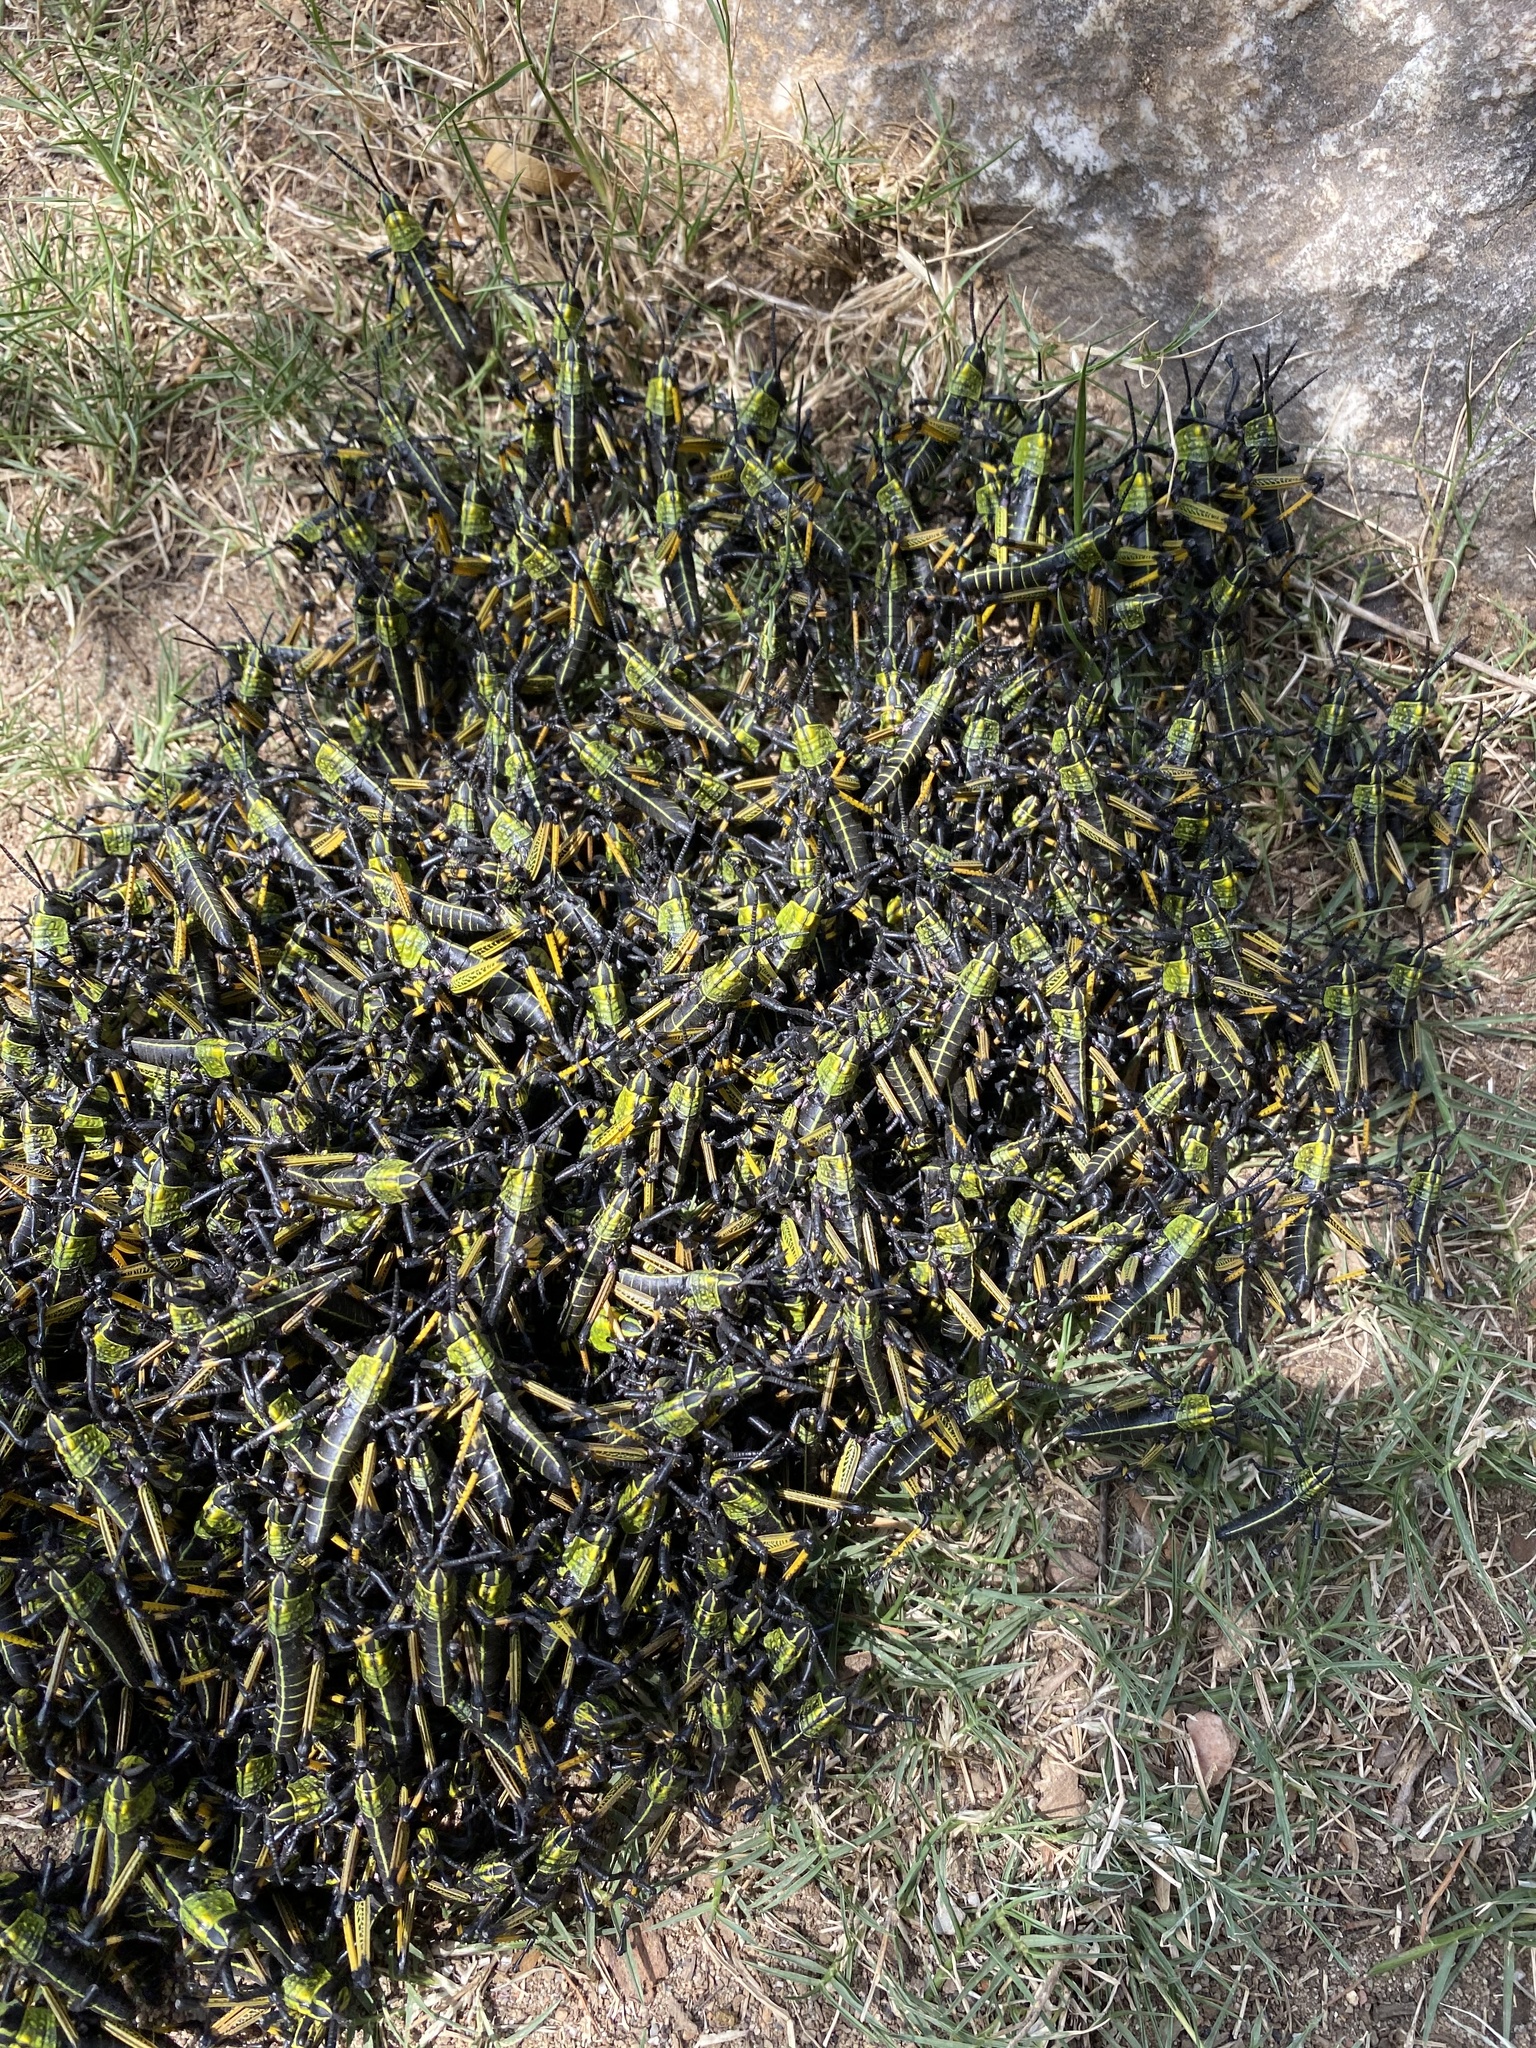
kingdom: Animalia
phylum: Arthropoda
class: Insecta
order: Orthoptera
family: Pyrgomorphidae
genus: Phymateus
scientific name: Phymateus leprosus
